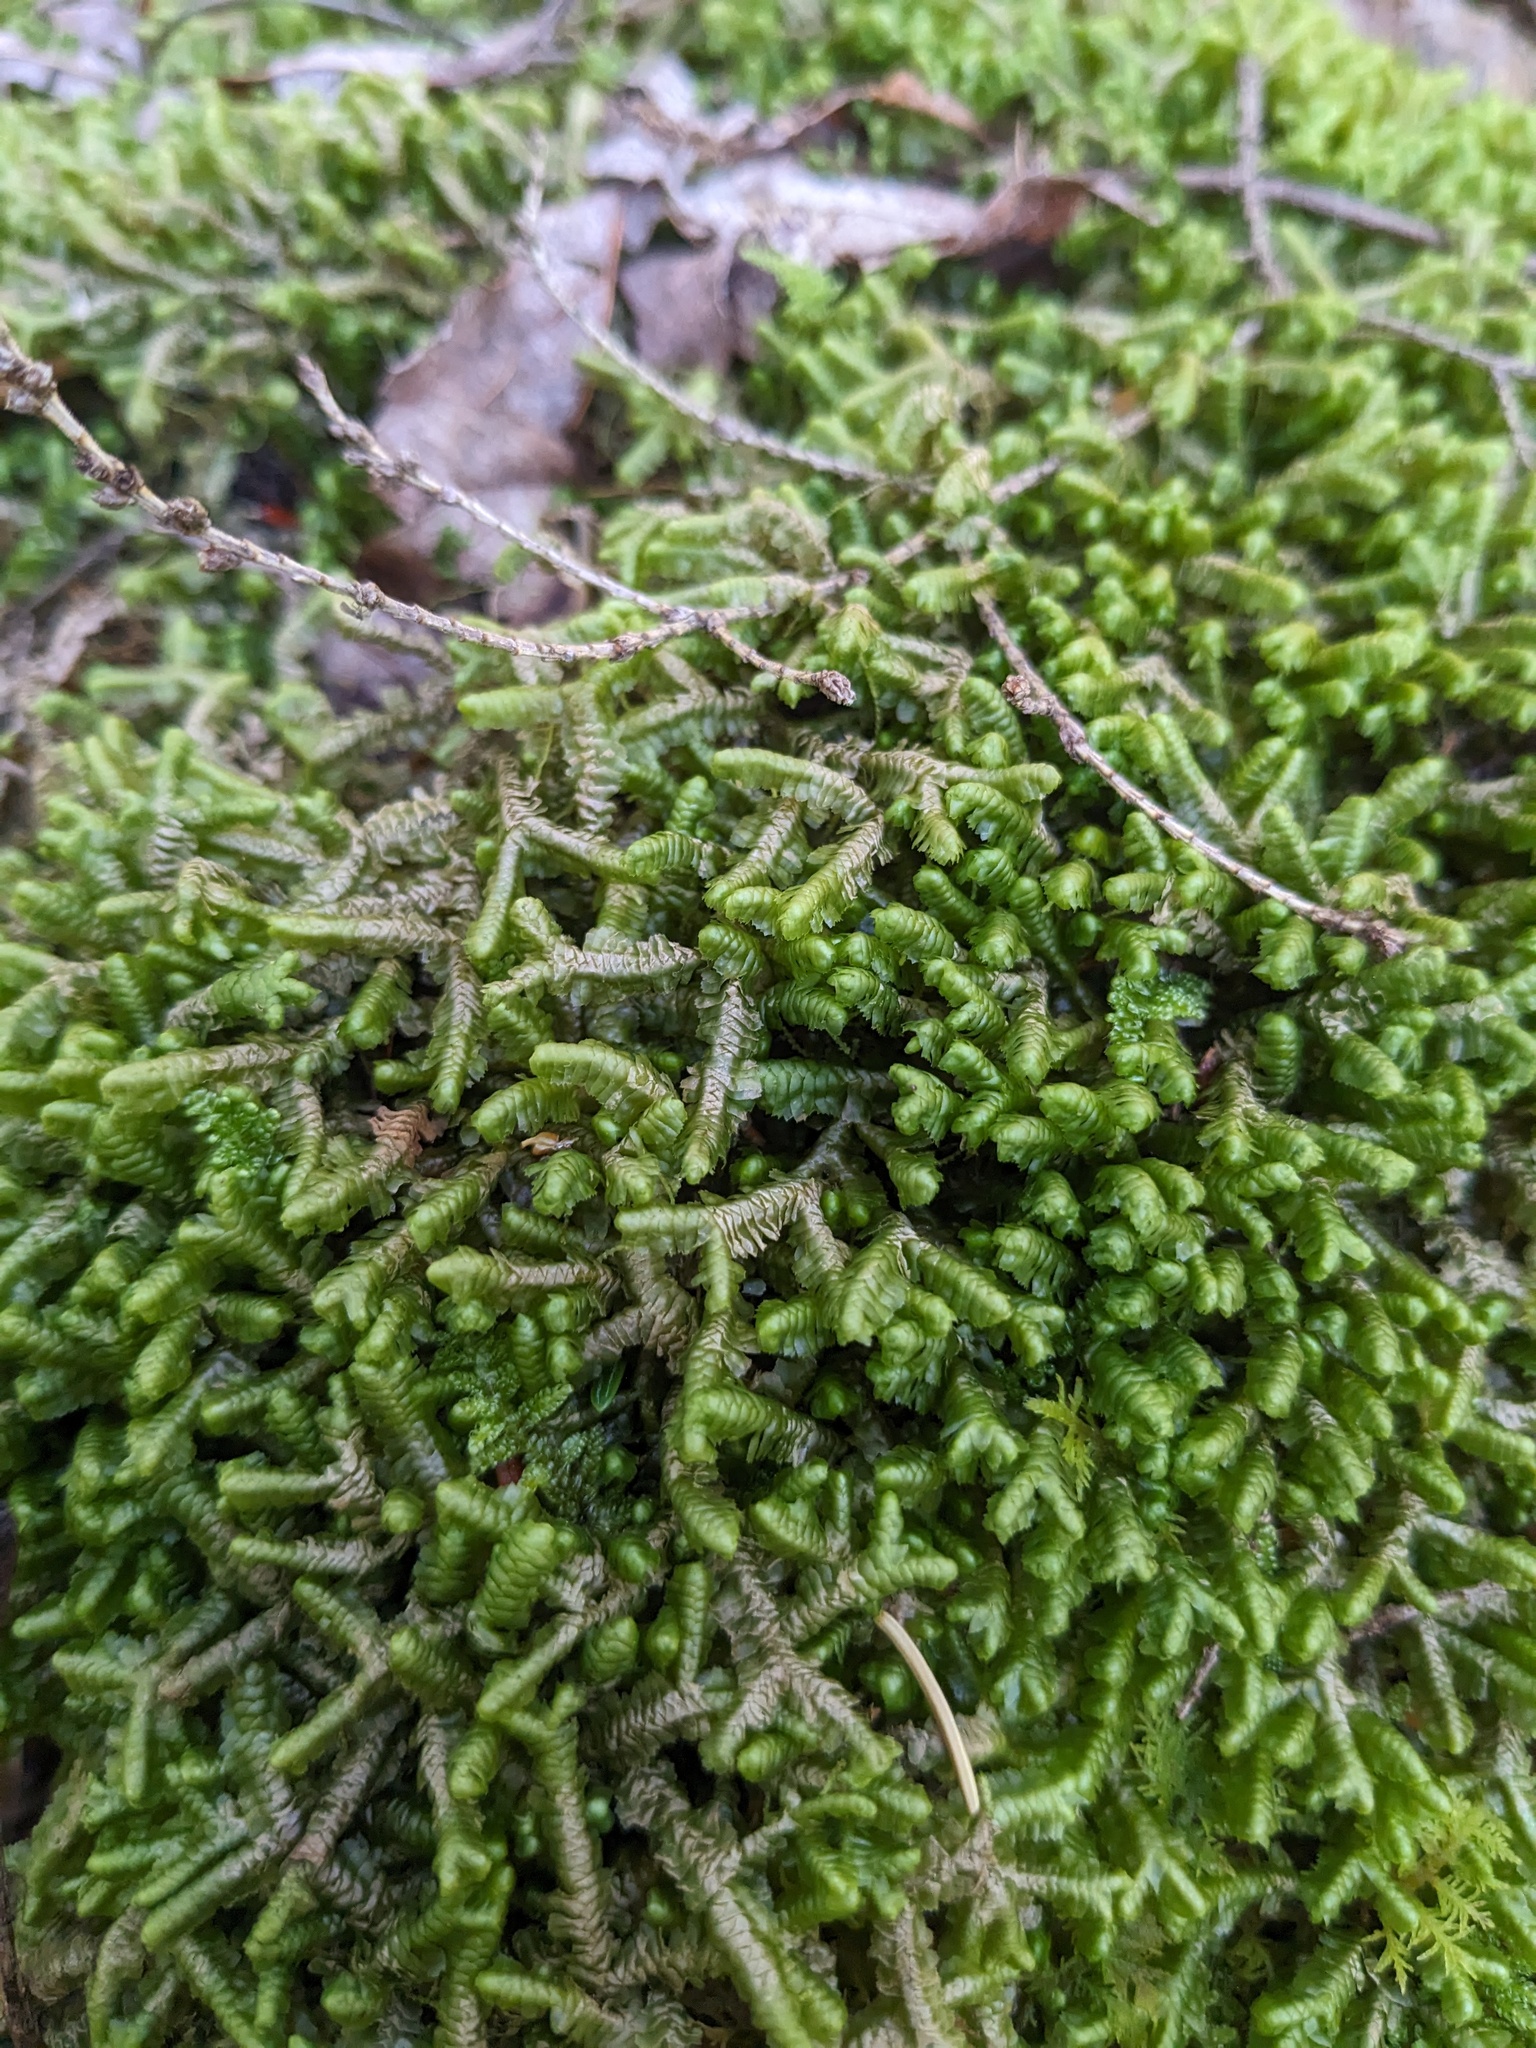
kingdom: Plantae
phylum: Marchantiophyta
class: Jungermanniopsida
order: Jungermanniales
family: Lepidoziaceae
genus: Bazzania
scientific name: Bazzania trilobata
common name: Three-lobed whipwort
